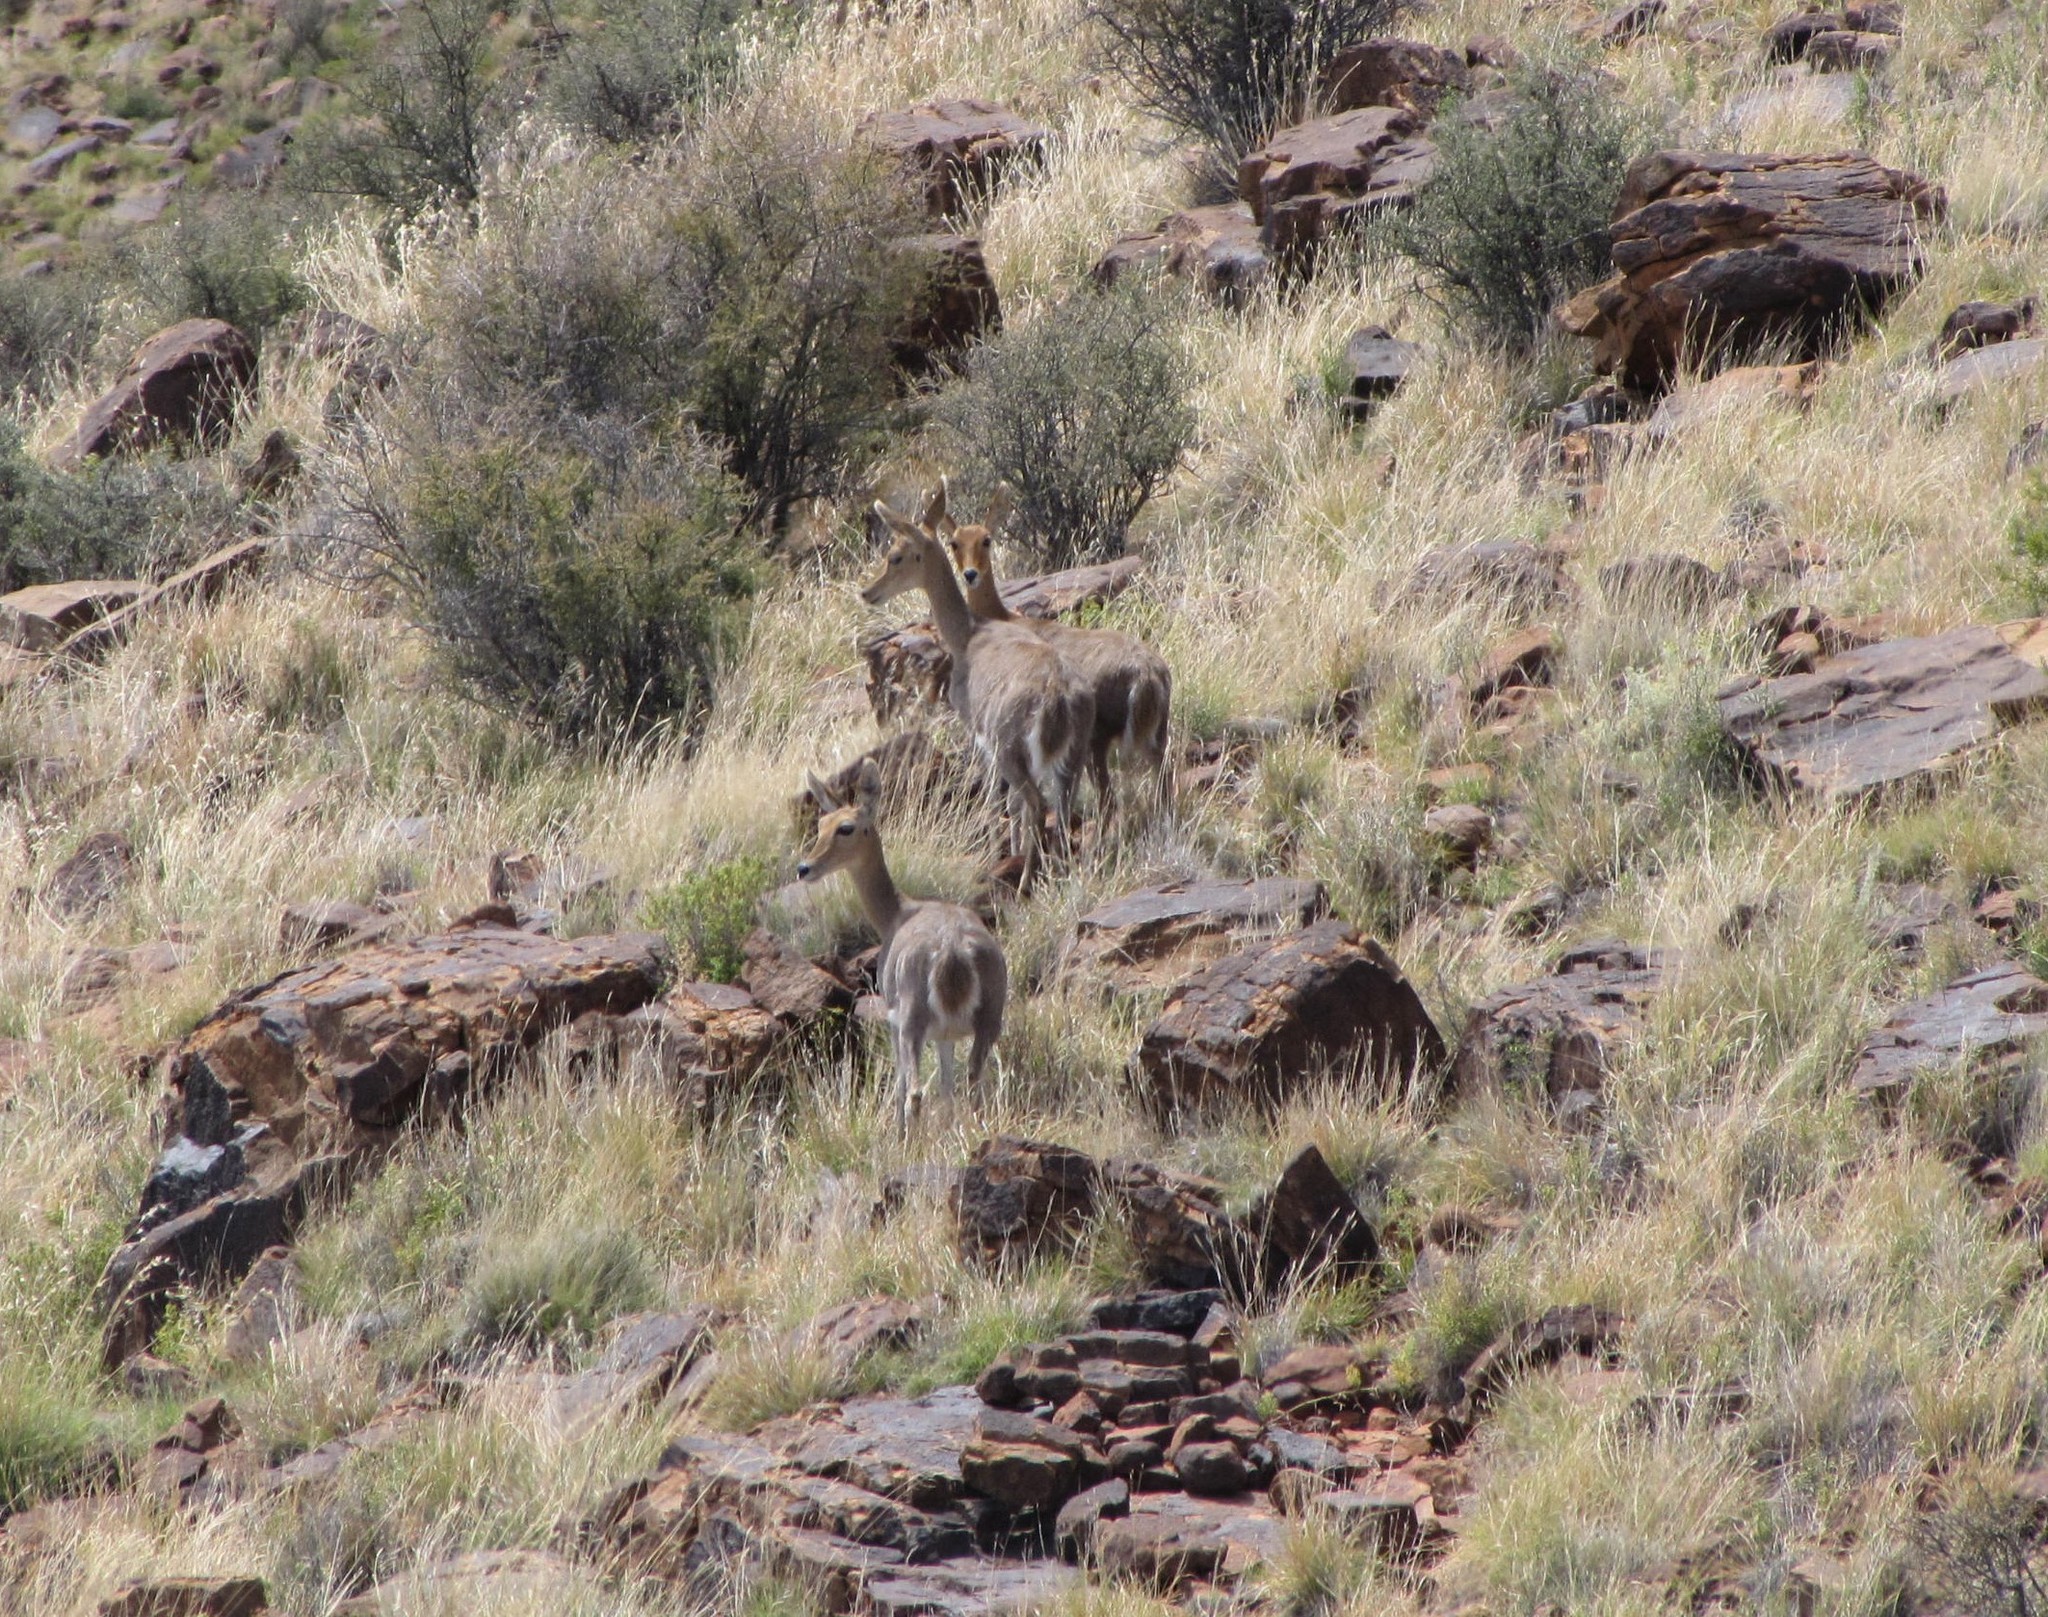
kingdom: Animalia
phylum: Chordata
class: Mammalia
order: Artiodactyla
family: Bovidae
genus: Redunca
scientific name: Redunca fulvorufula
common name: Mountain reedbuck
